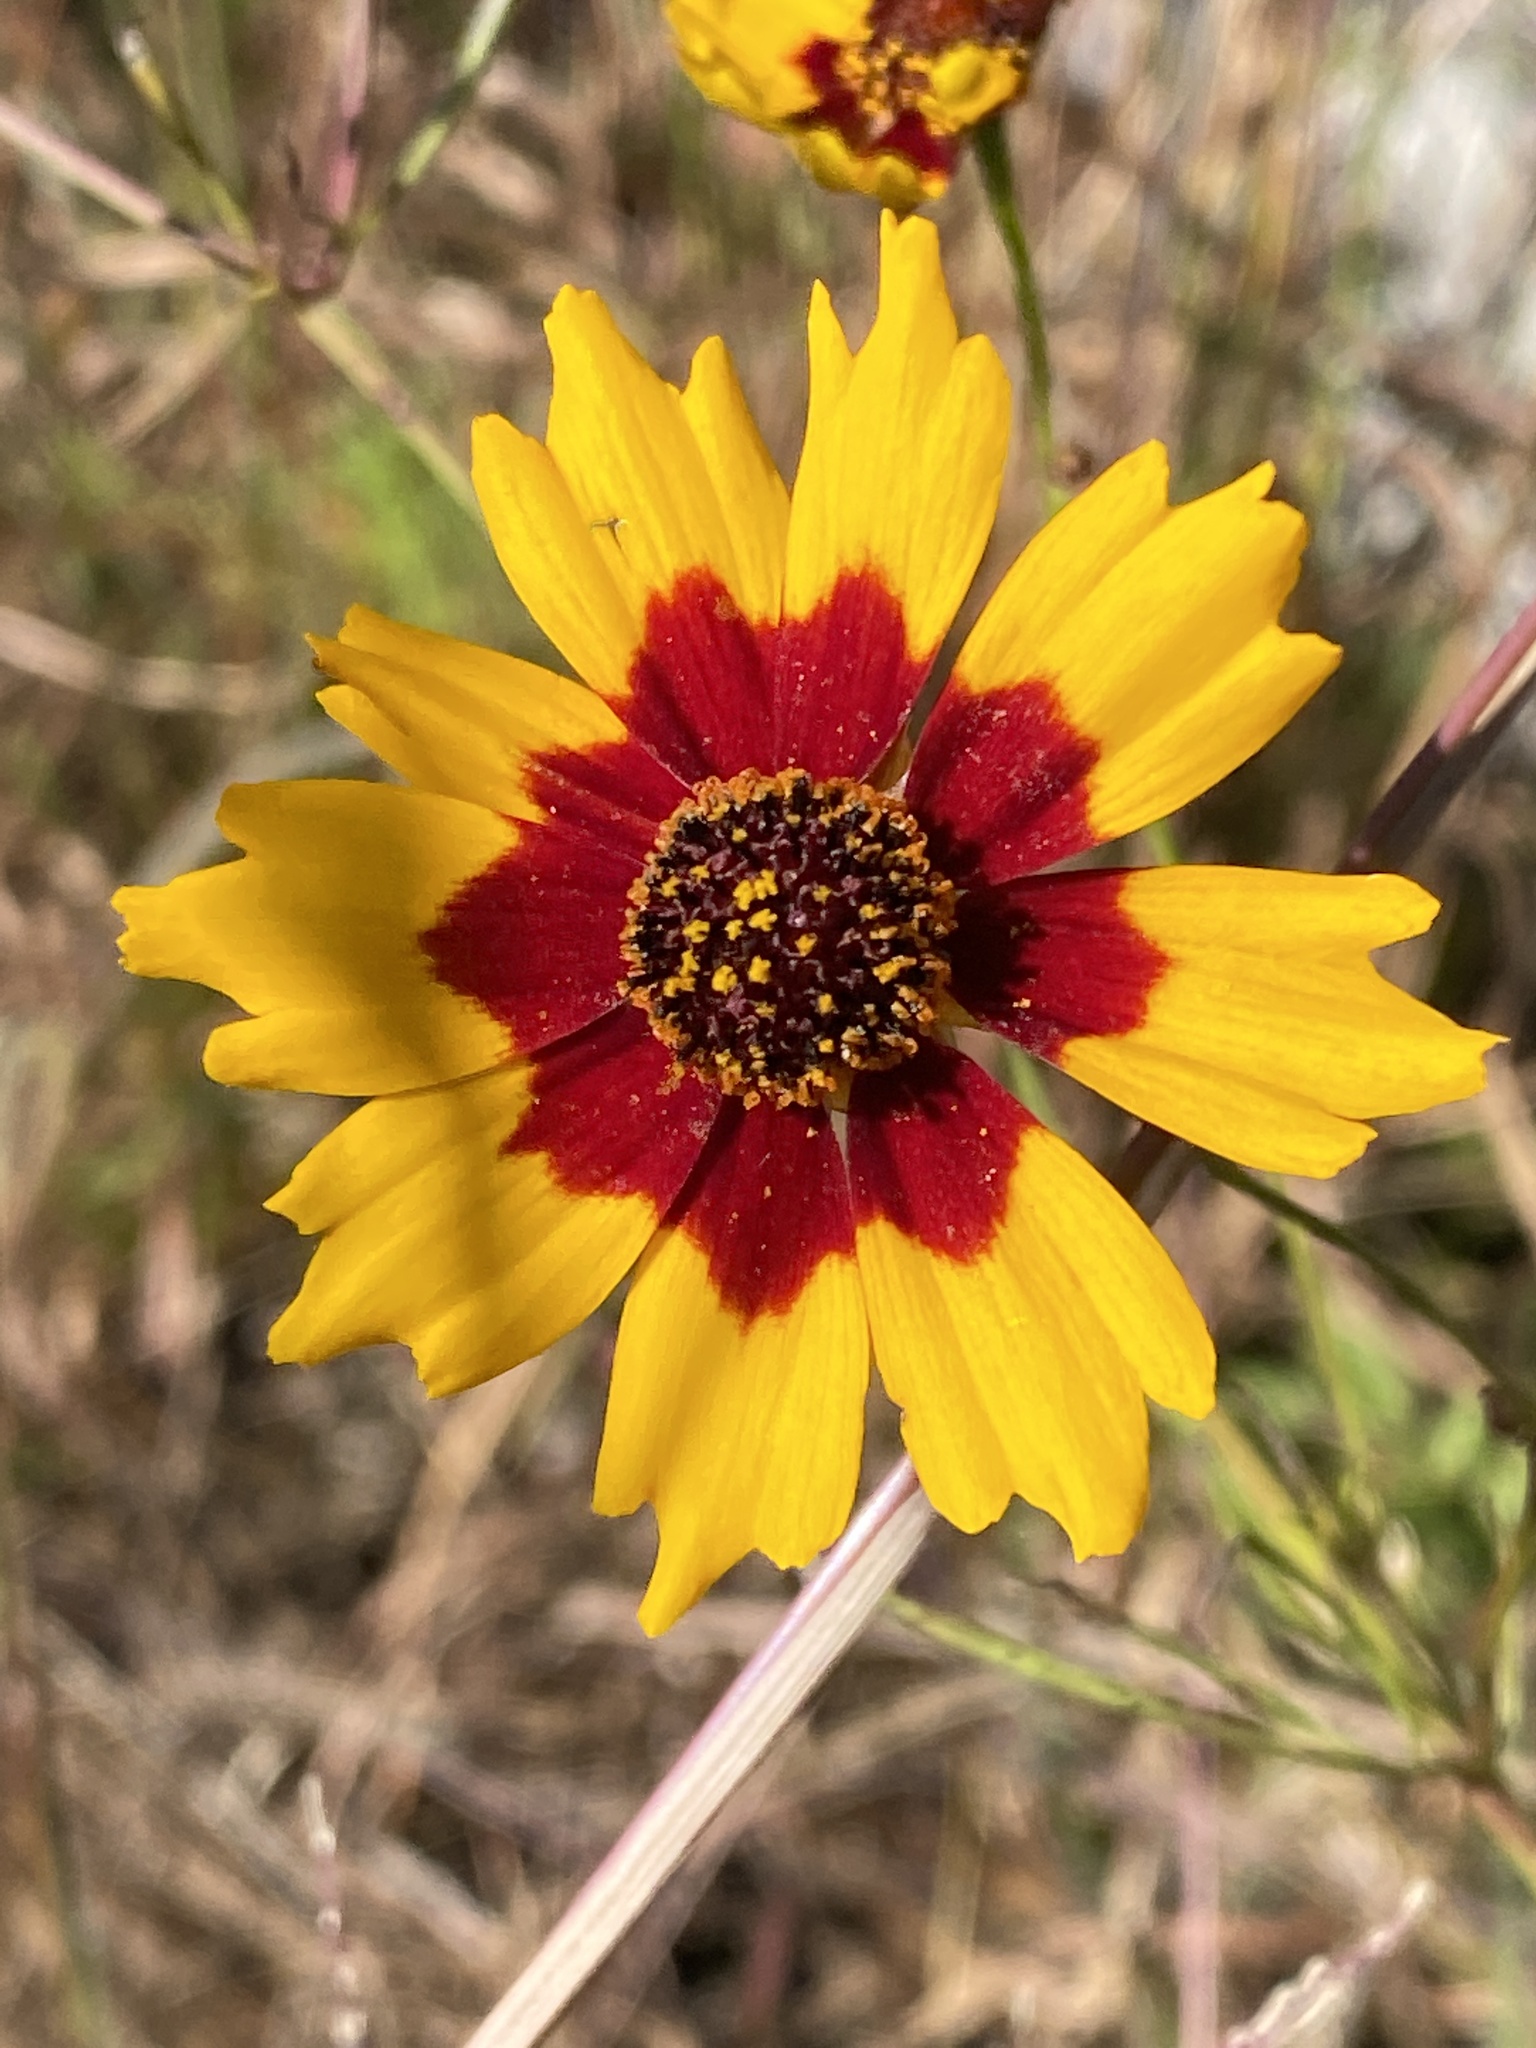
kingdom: Plantae
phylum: Tracheophyta
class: Magnoliopsida
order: Asterales
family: Asteraceae
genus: Coreopsis
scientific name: Coreopsis tinctoria
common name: Garden tickseed
